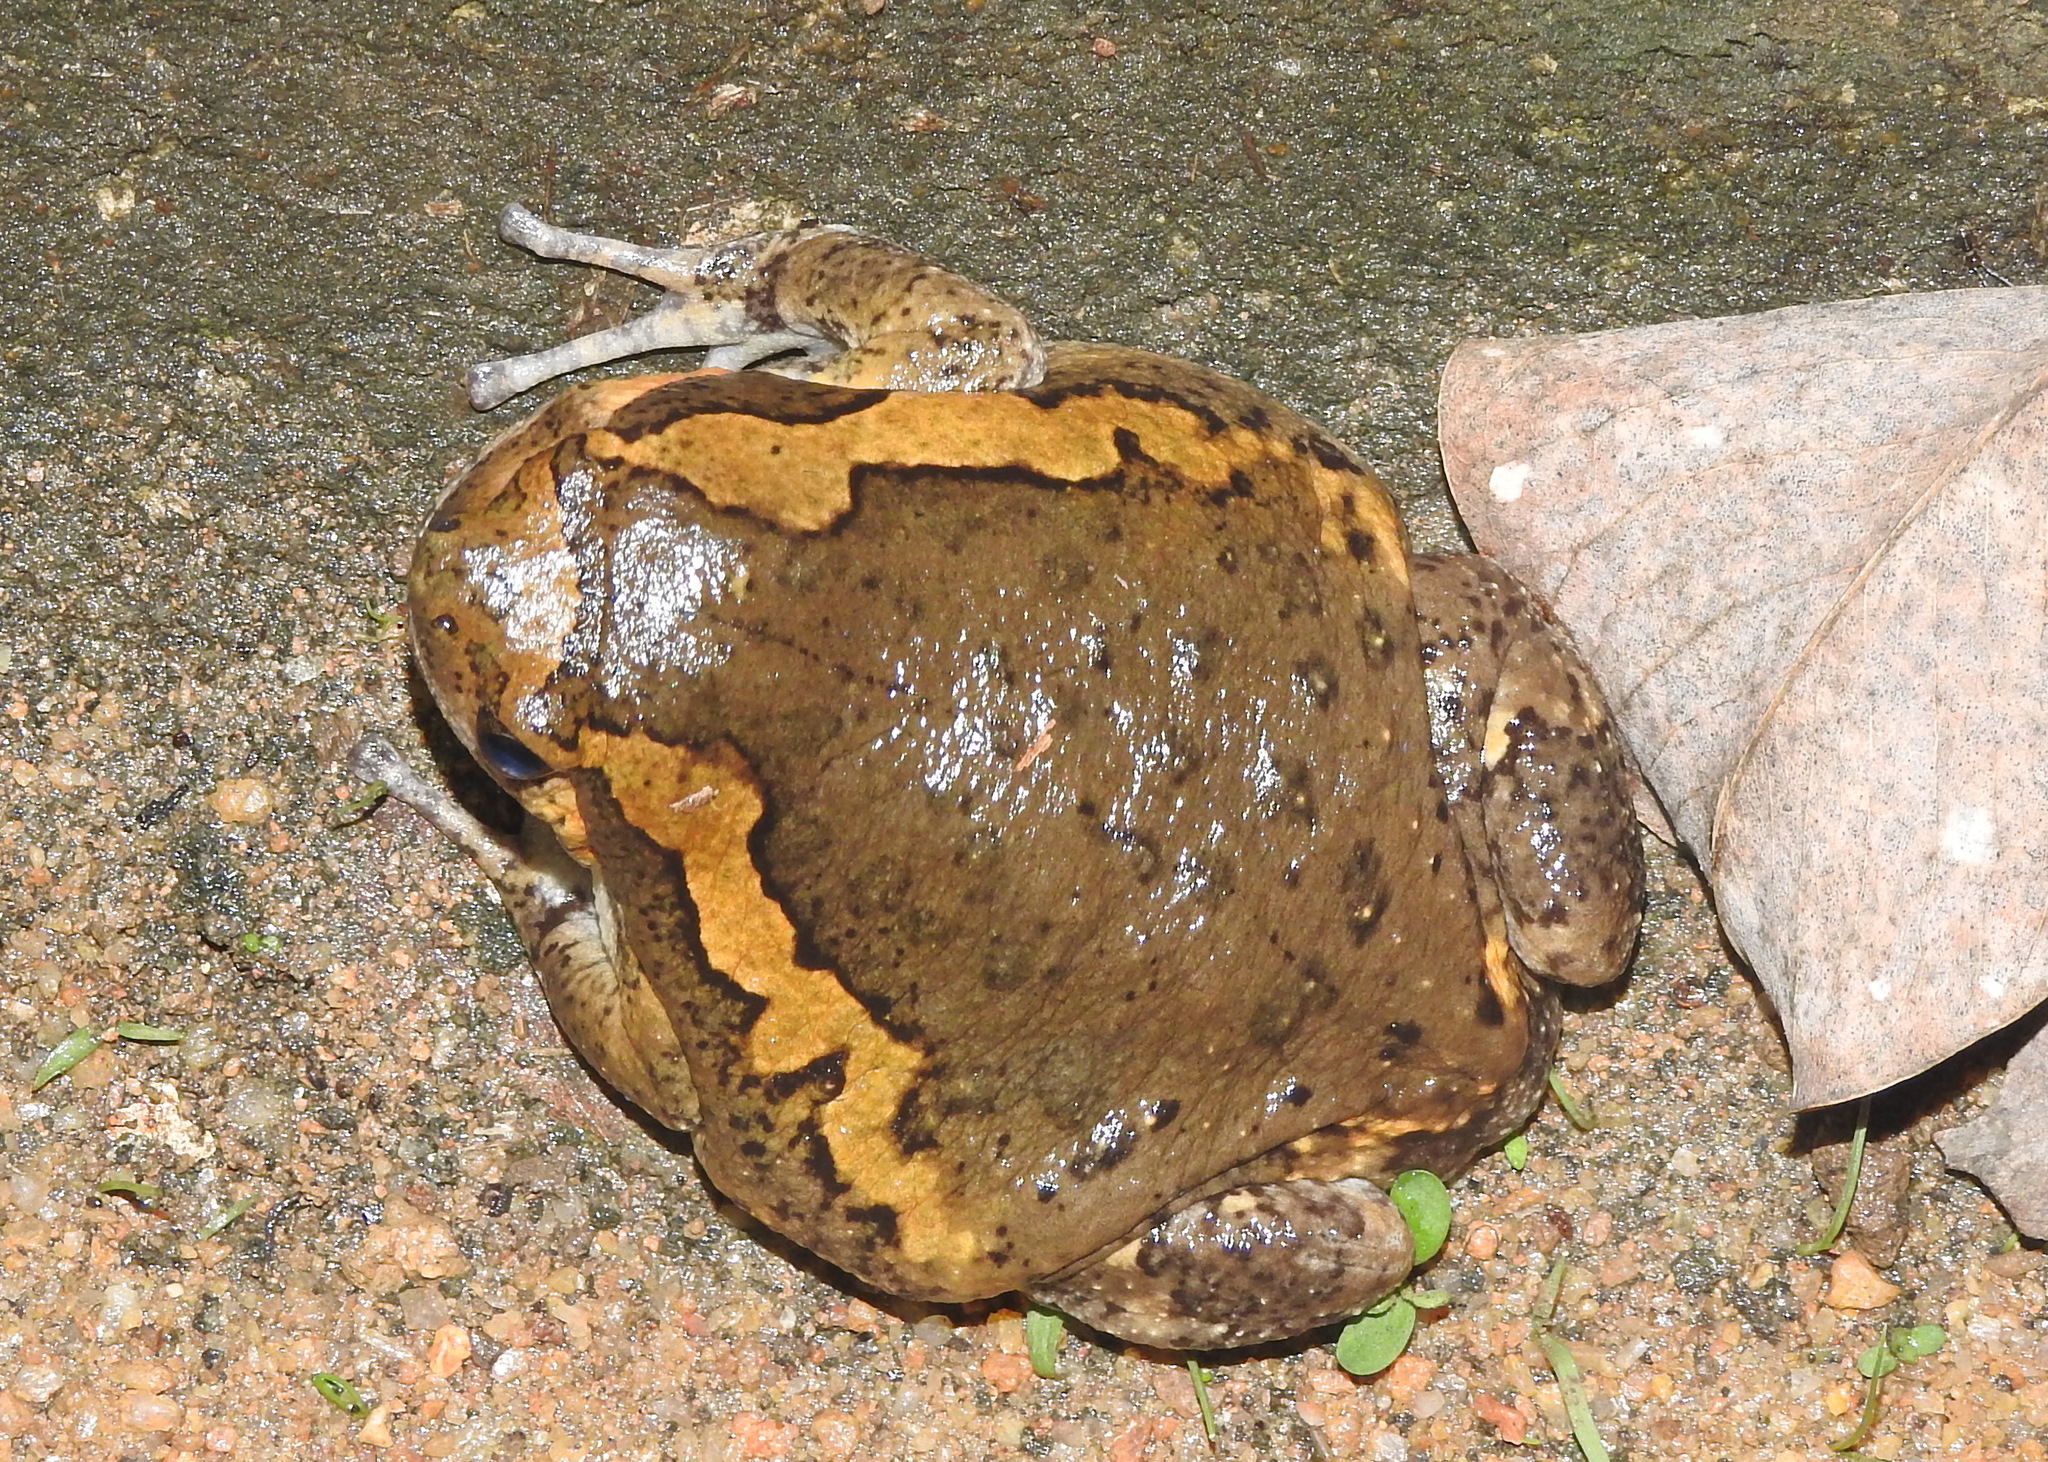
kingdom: Animalia
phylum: Chordata
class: Amphibia
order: Anura
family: Microhylidae
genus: Kaloula
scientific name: Kaloula pulchra
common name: Common,banded bullfrog
